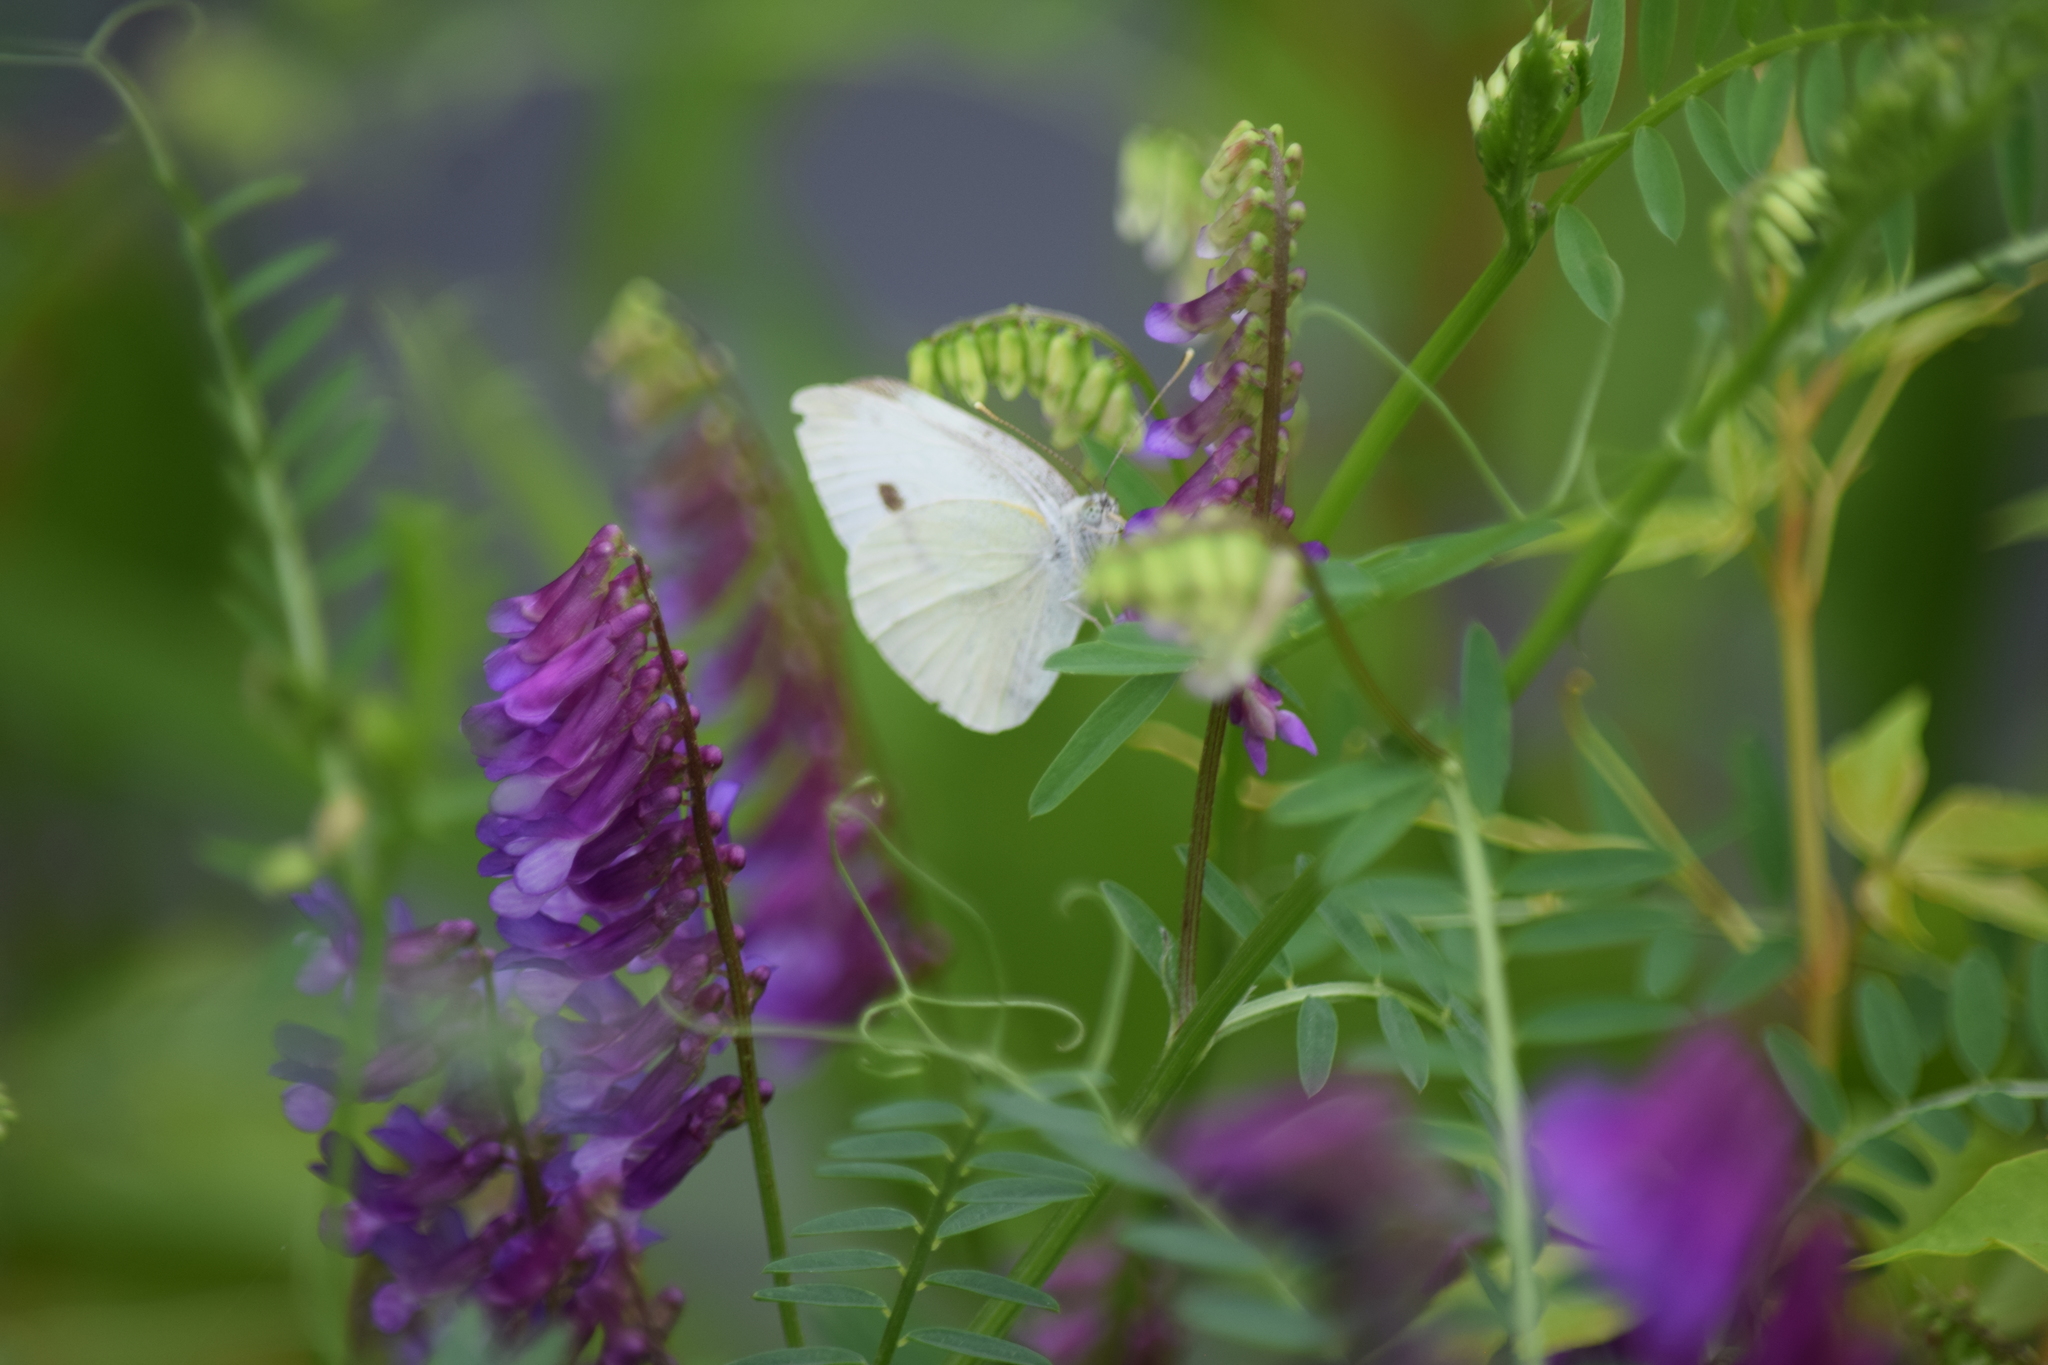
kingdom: Animalia
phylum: Arthropoda
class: Insecta
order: Lepidoptera
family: Pieridae
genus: Pieris
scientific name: Pieris rapae
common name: Small white
